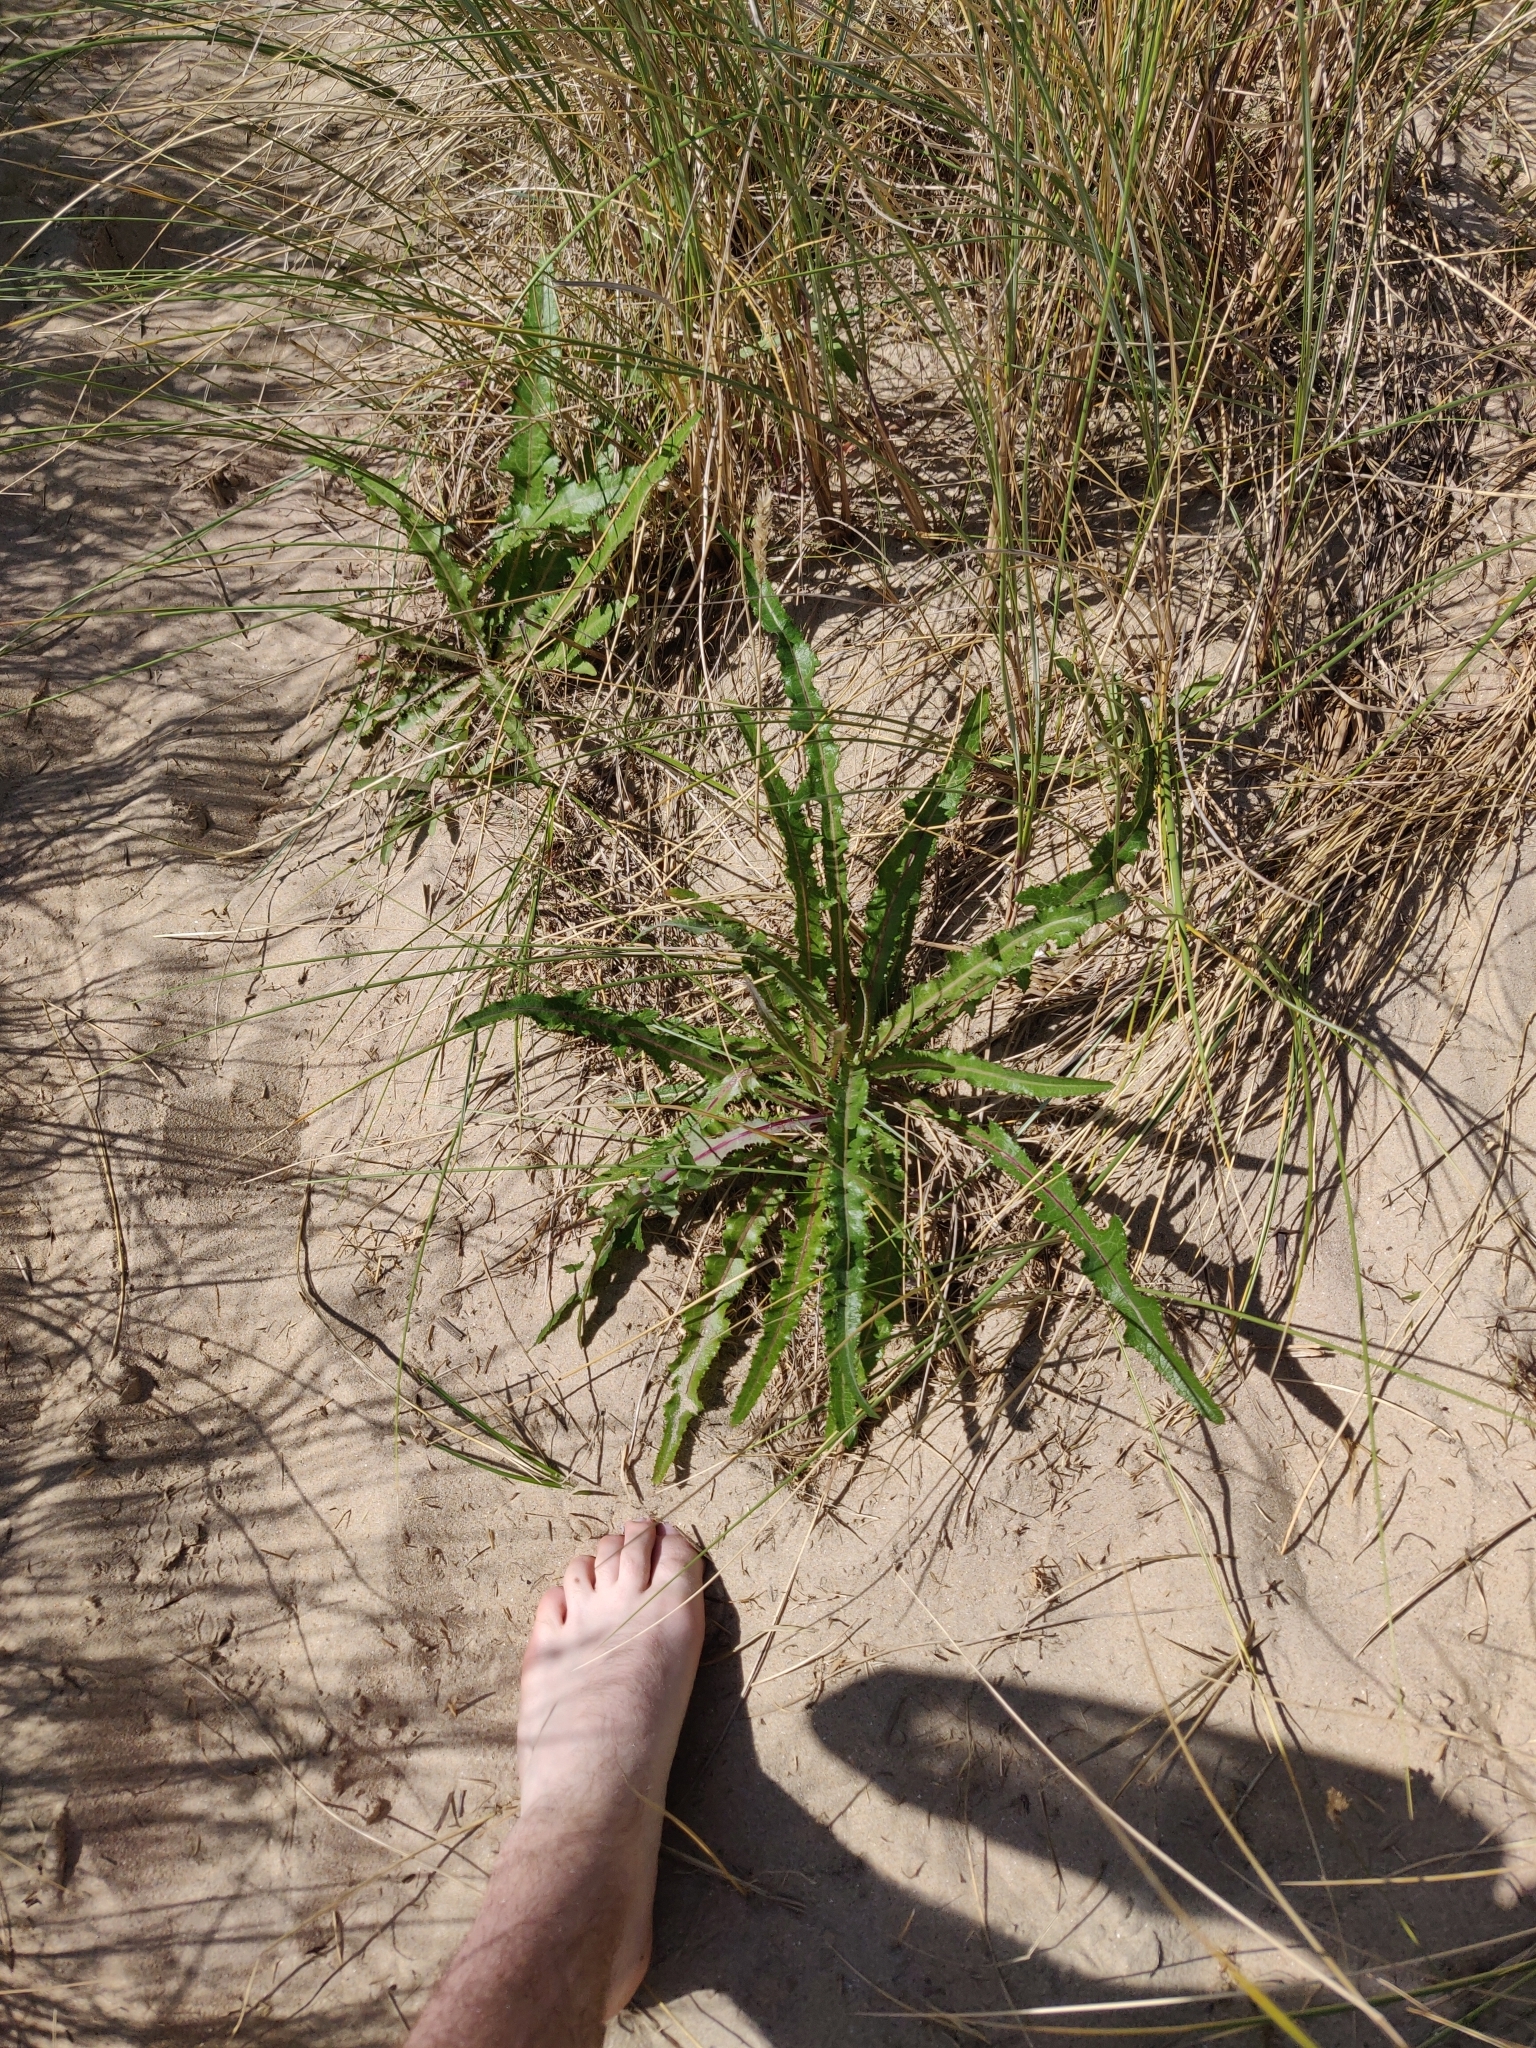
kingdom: Plantae
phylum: Tracheophyta
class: Magnoliopsida
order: Asterales
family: Asteraceae
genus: Sonchus
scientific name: Sonchus maritimus
